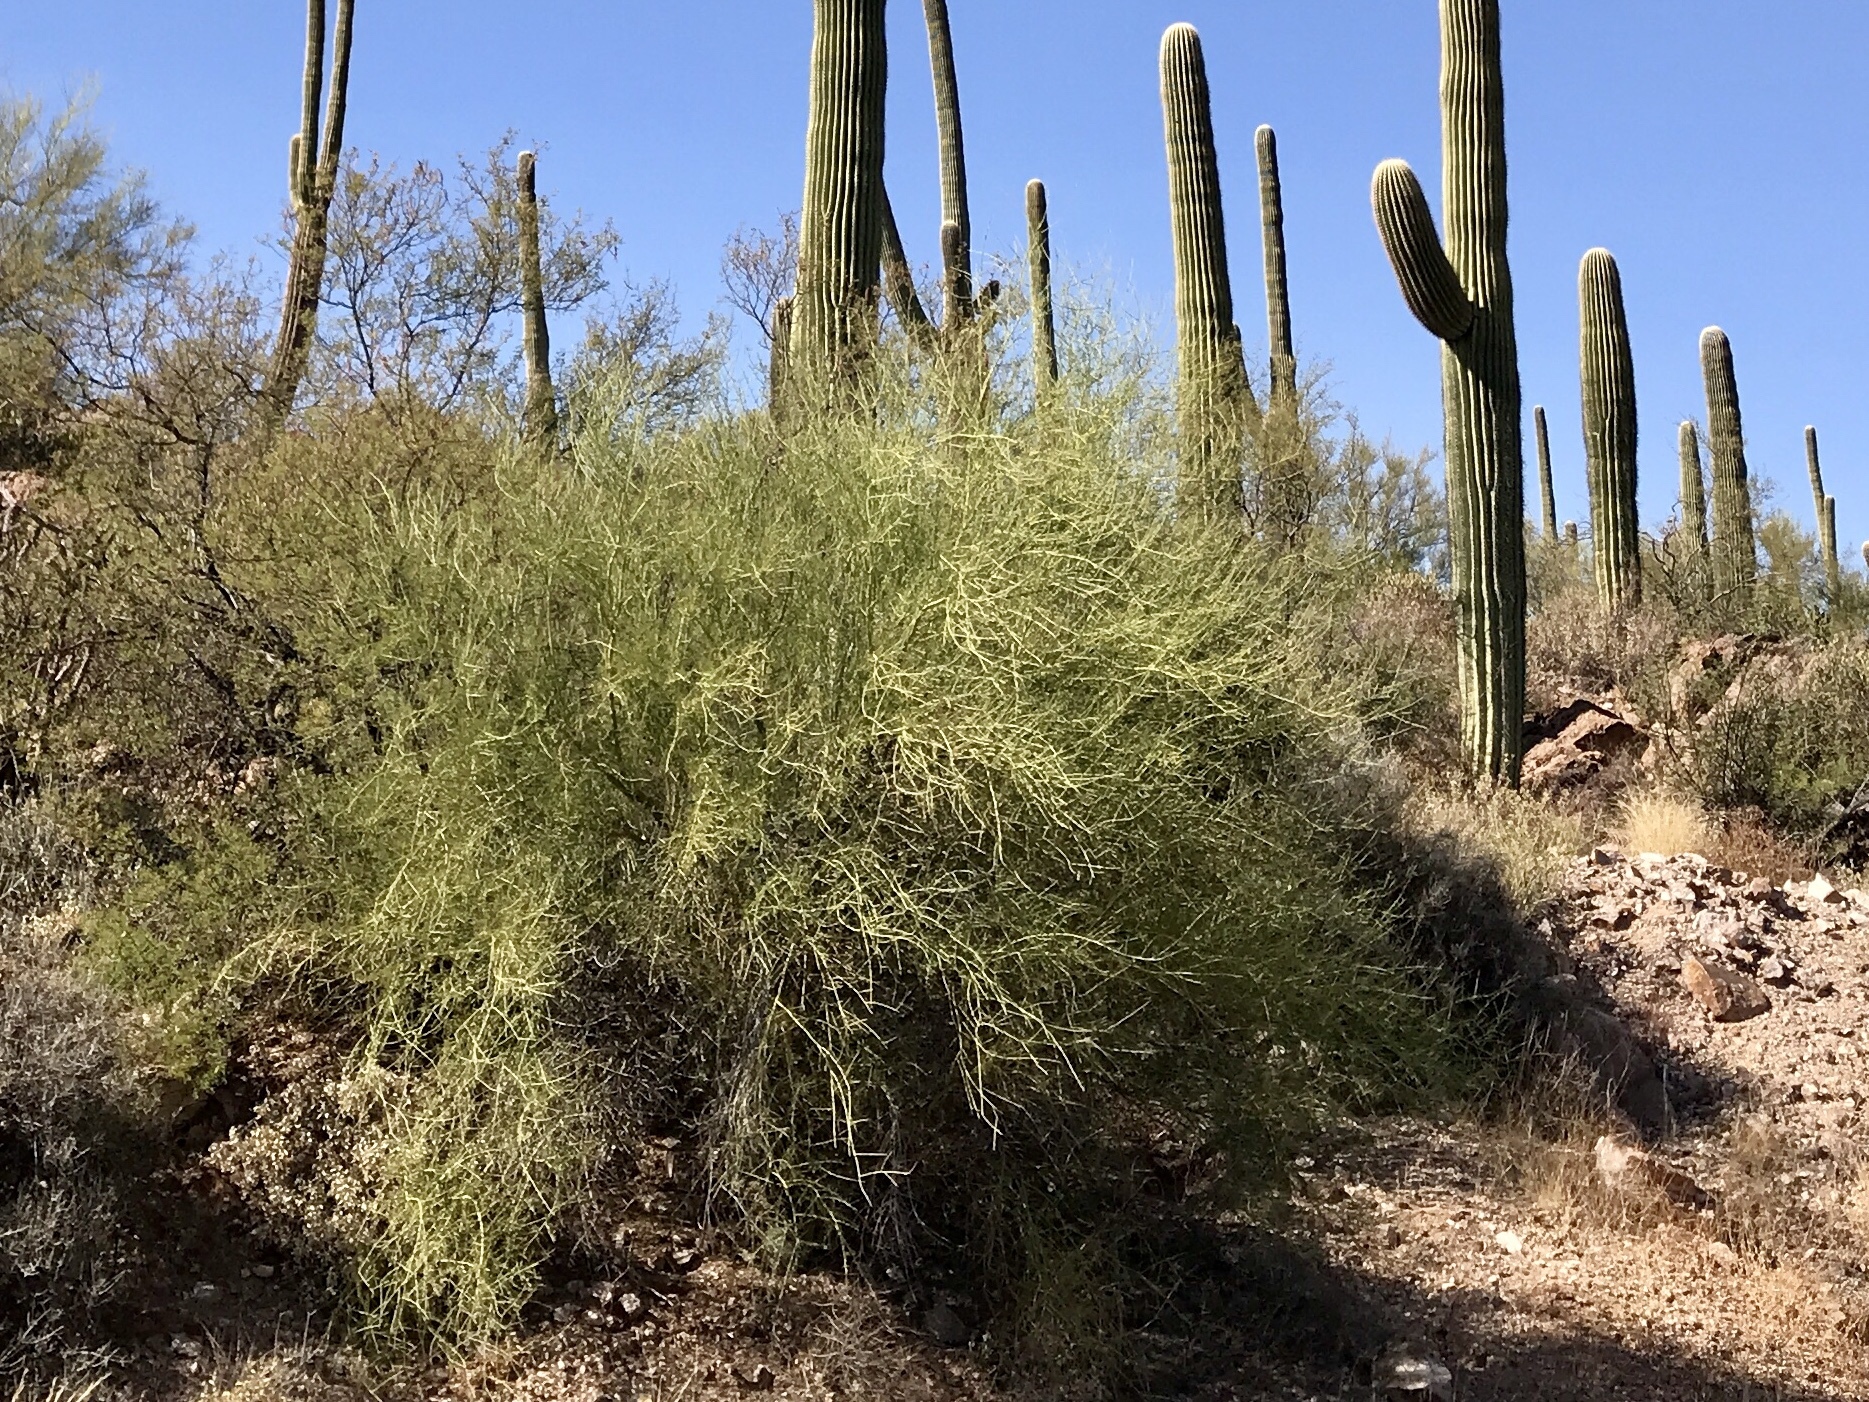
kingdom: Plantae
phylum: Tracheophyta
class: Magnoliopsida
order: Fabales
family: Fabaceae
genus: Parkinsonia
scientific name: Parkinsonia microphylla
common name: Yellow paloverde
